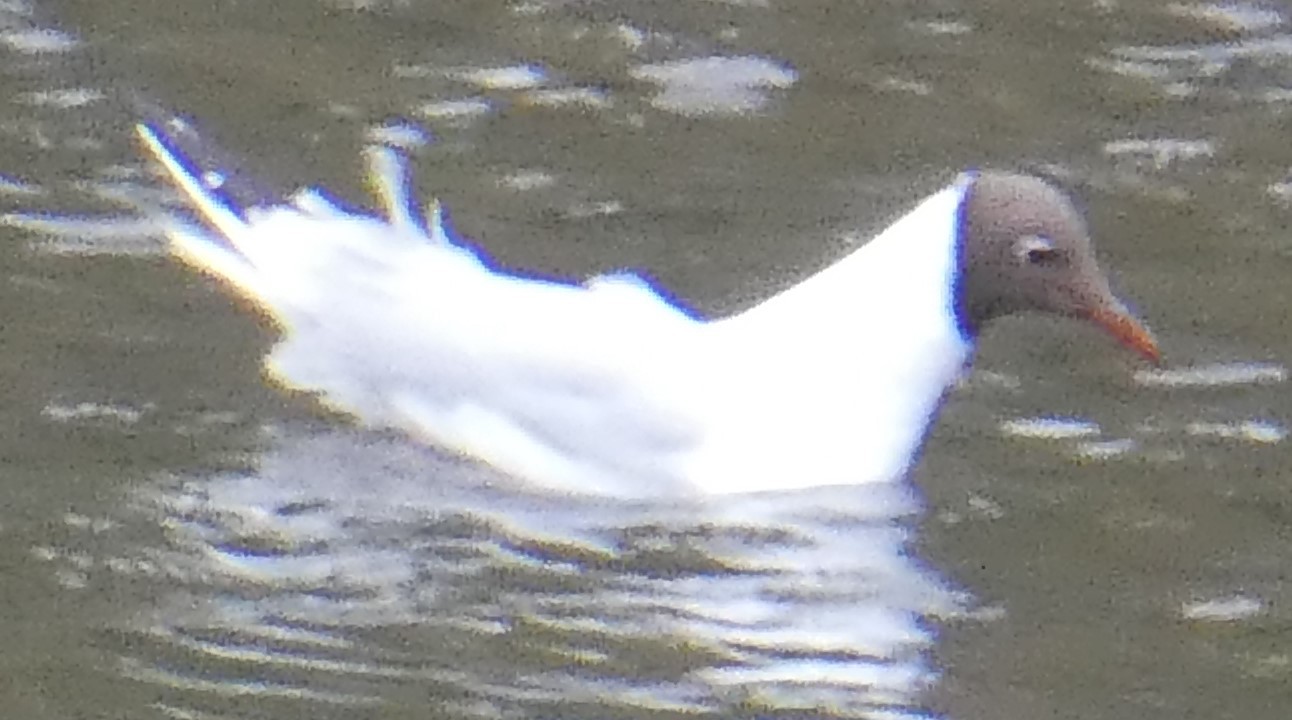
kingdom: Animalia
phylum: Chordata
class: Aves
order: Charadriiformes
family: Laridae
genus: Chroicocephalus
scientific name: Chroicocephalus ridibundus
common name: Black-headed gull
